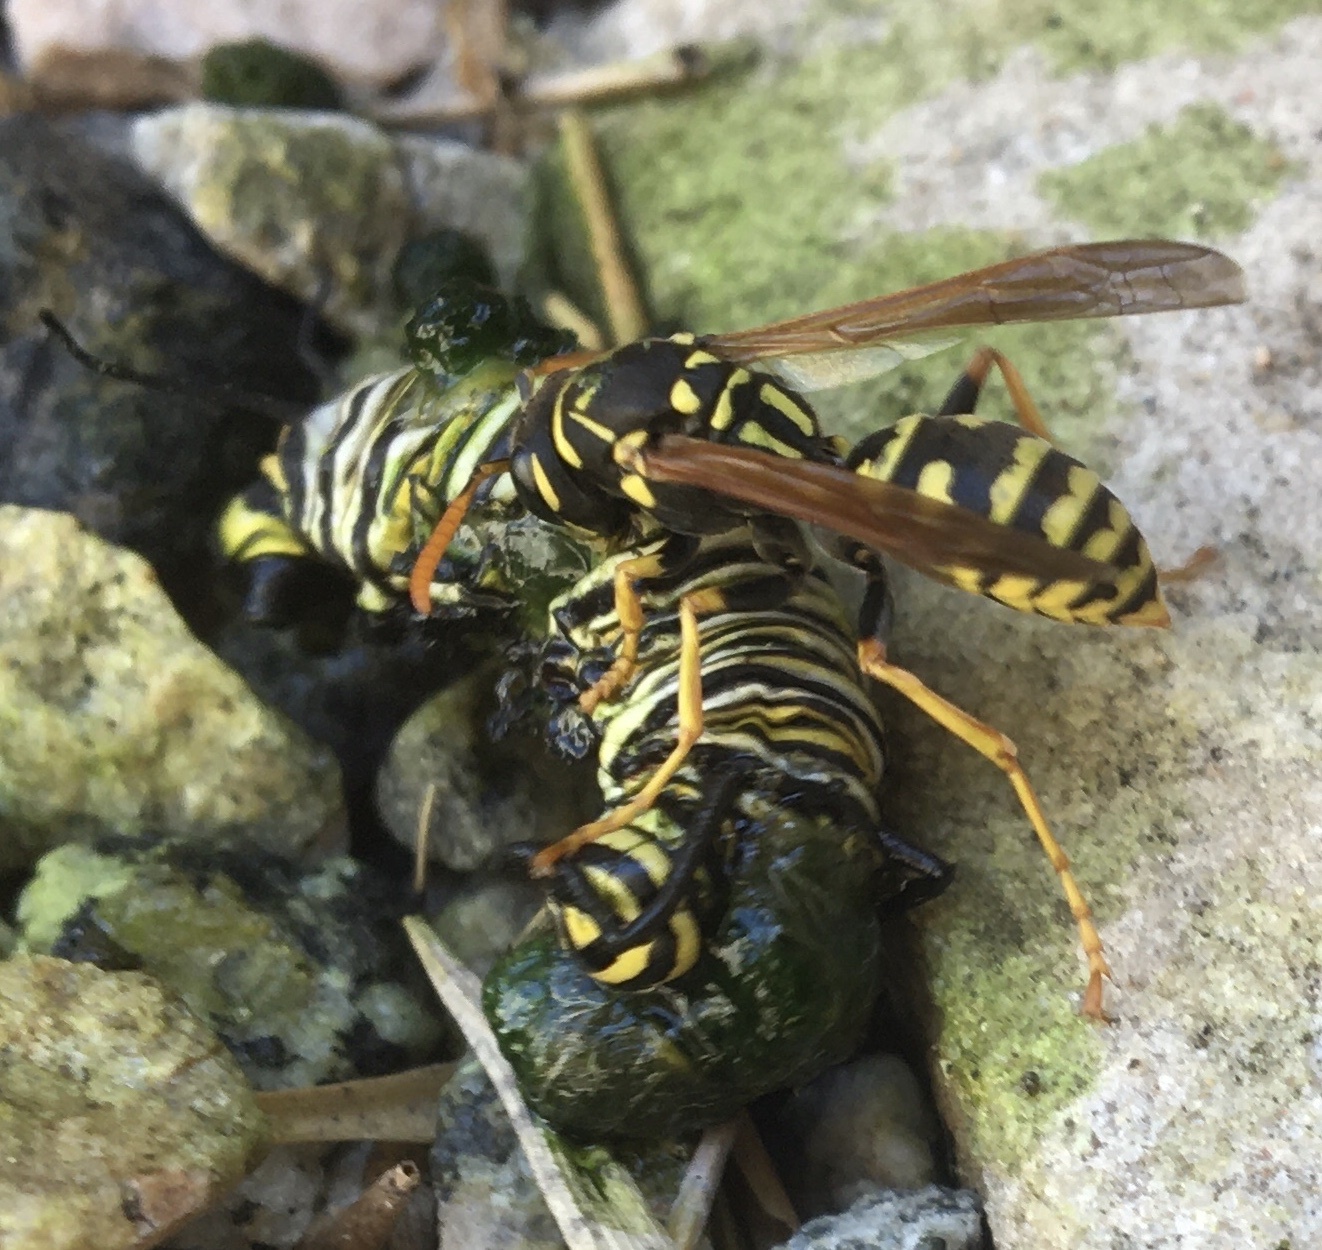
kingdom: Animalia
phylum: Arthropoda
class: Insecta
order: Hymenoptera
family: Eumenidae
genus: Polistes
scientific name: Polistes dominula
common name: Paper wasp
